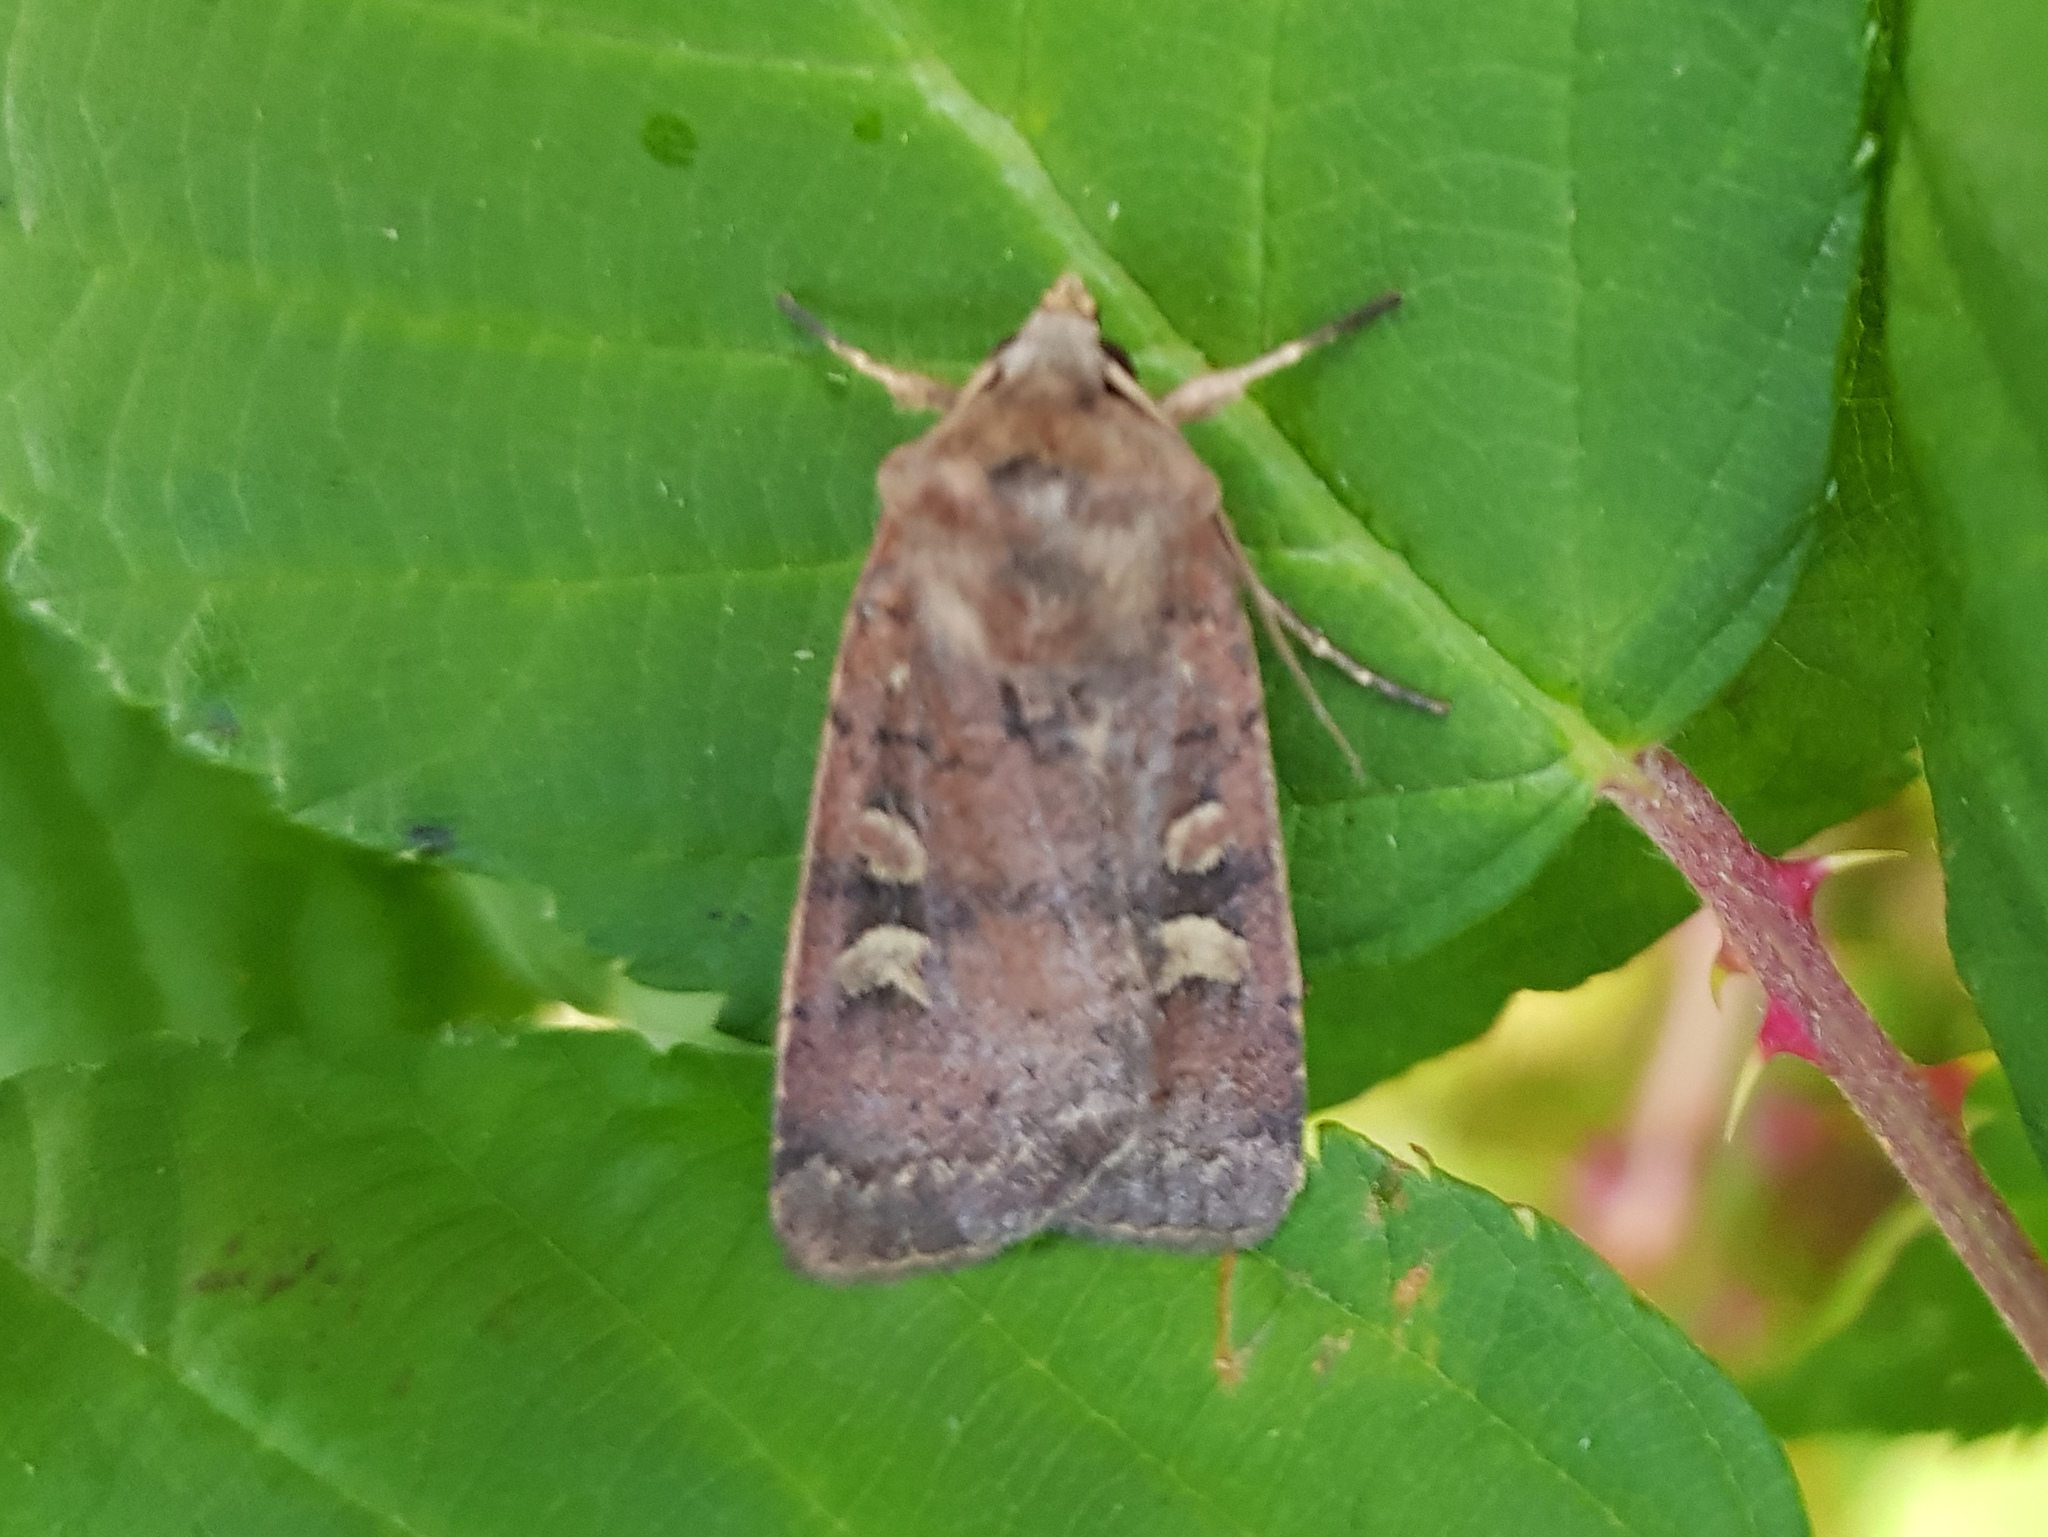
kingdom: Animalia
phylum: Arthropoda
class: Insecta
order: Lepidoptera
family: Noctuidae
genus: Xestia
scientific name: Xestia xanthographa
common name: Square-spot rustic
